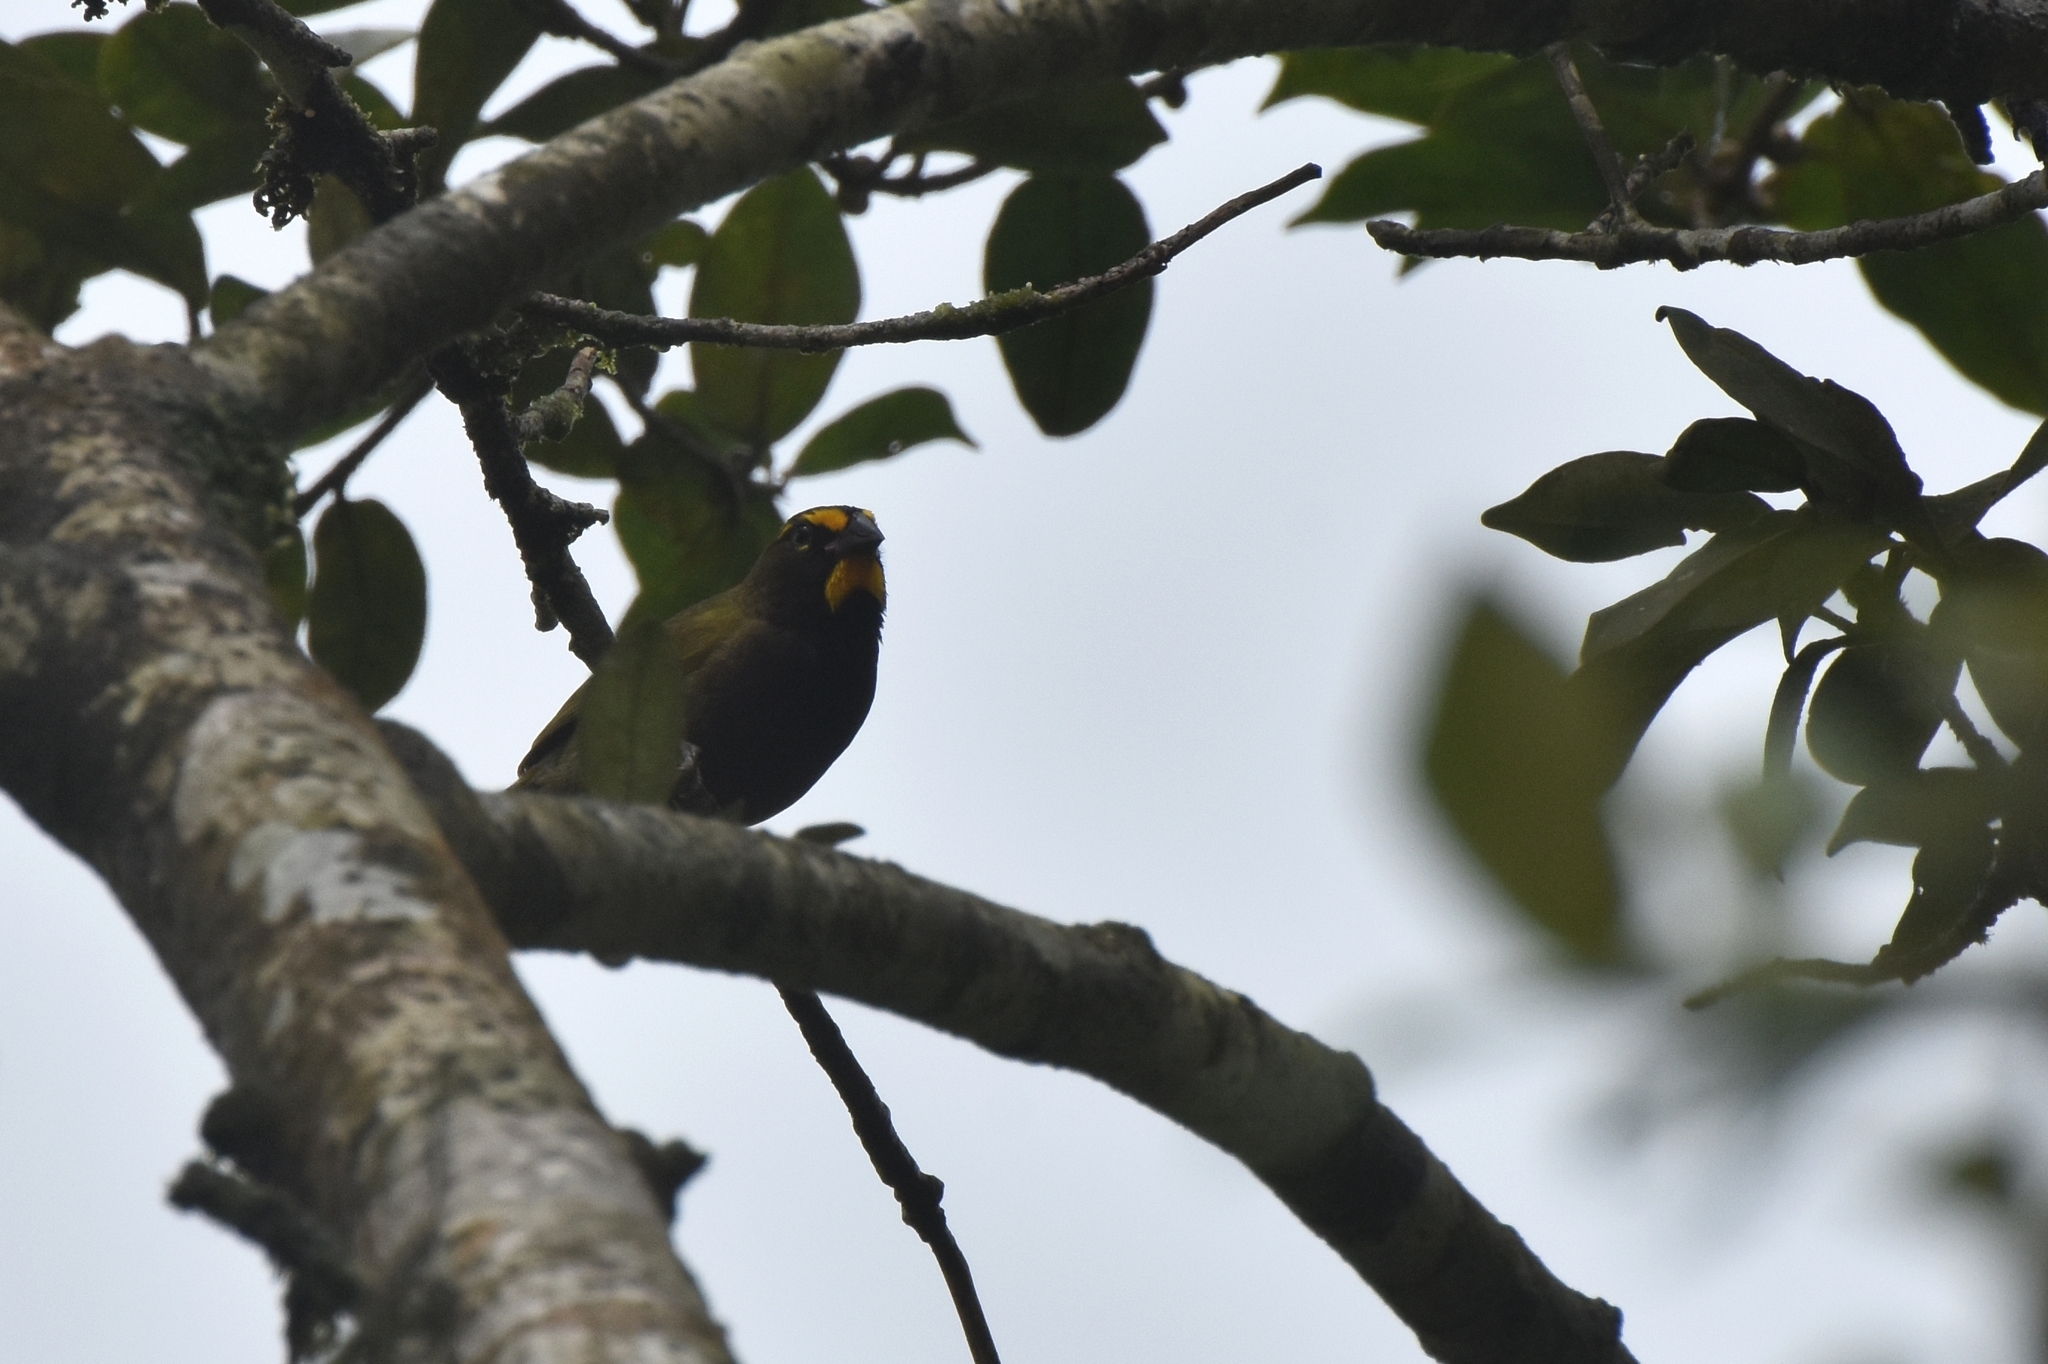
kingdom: Animalia
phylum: Chordata
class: Aves
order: Passeriformes
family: Thraupidae
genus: Tiaris
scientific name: Tiaris olivaceus
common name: Yellow-faced grassquit
